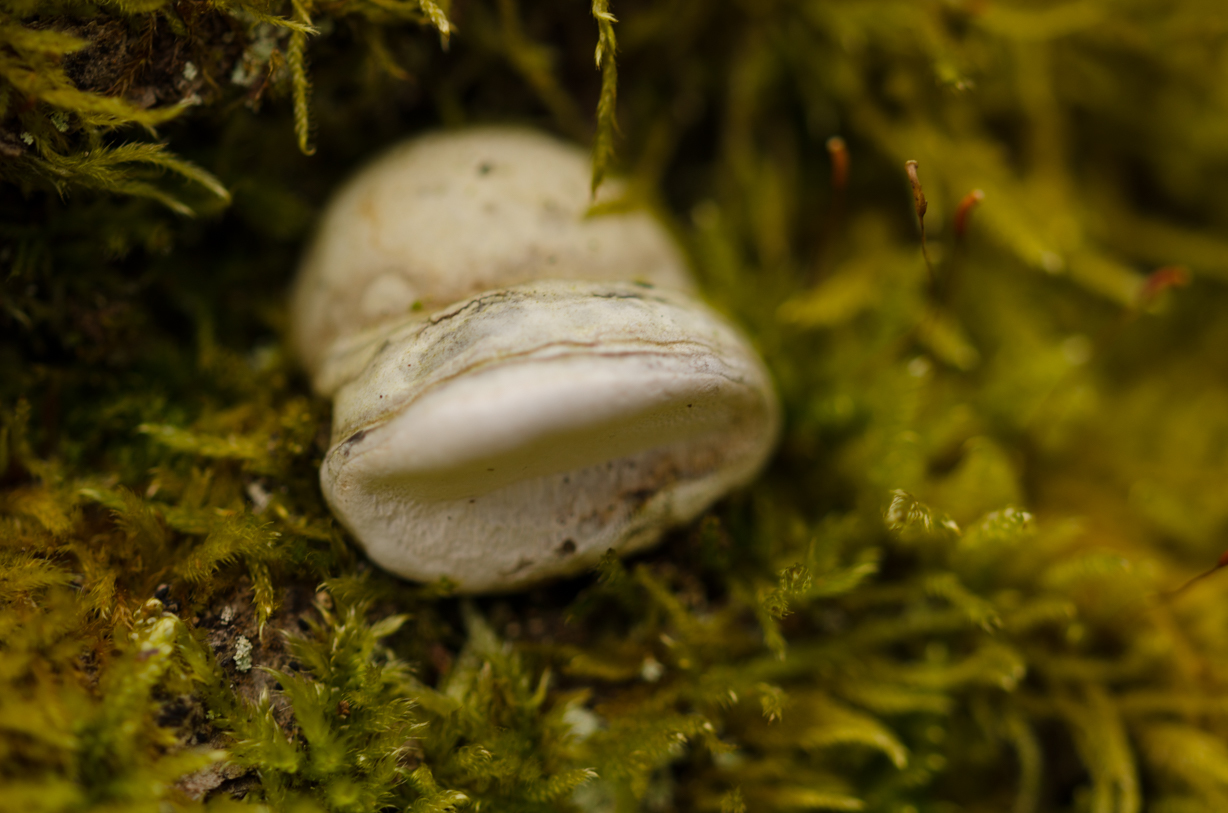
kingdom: Fungi
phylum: Basidiomycota
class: Agaricomycetes
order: Polyporales
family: Polyporaceae
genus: Fomes
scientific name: Fomes fomentarius
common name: Hoof fungus
